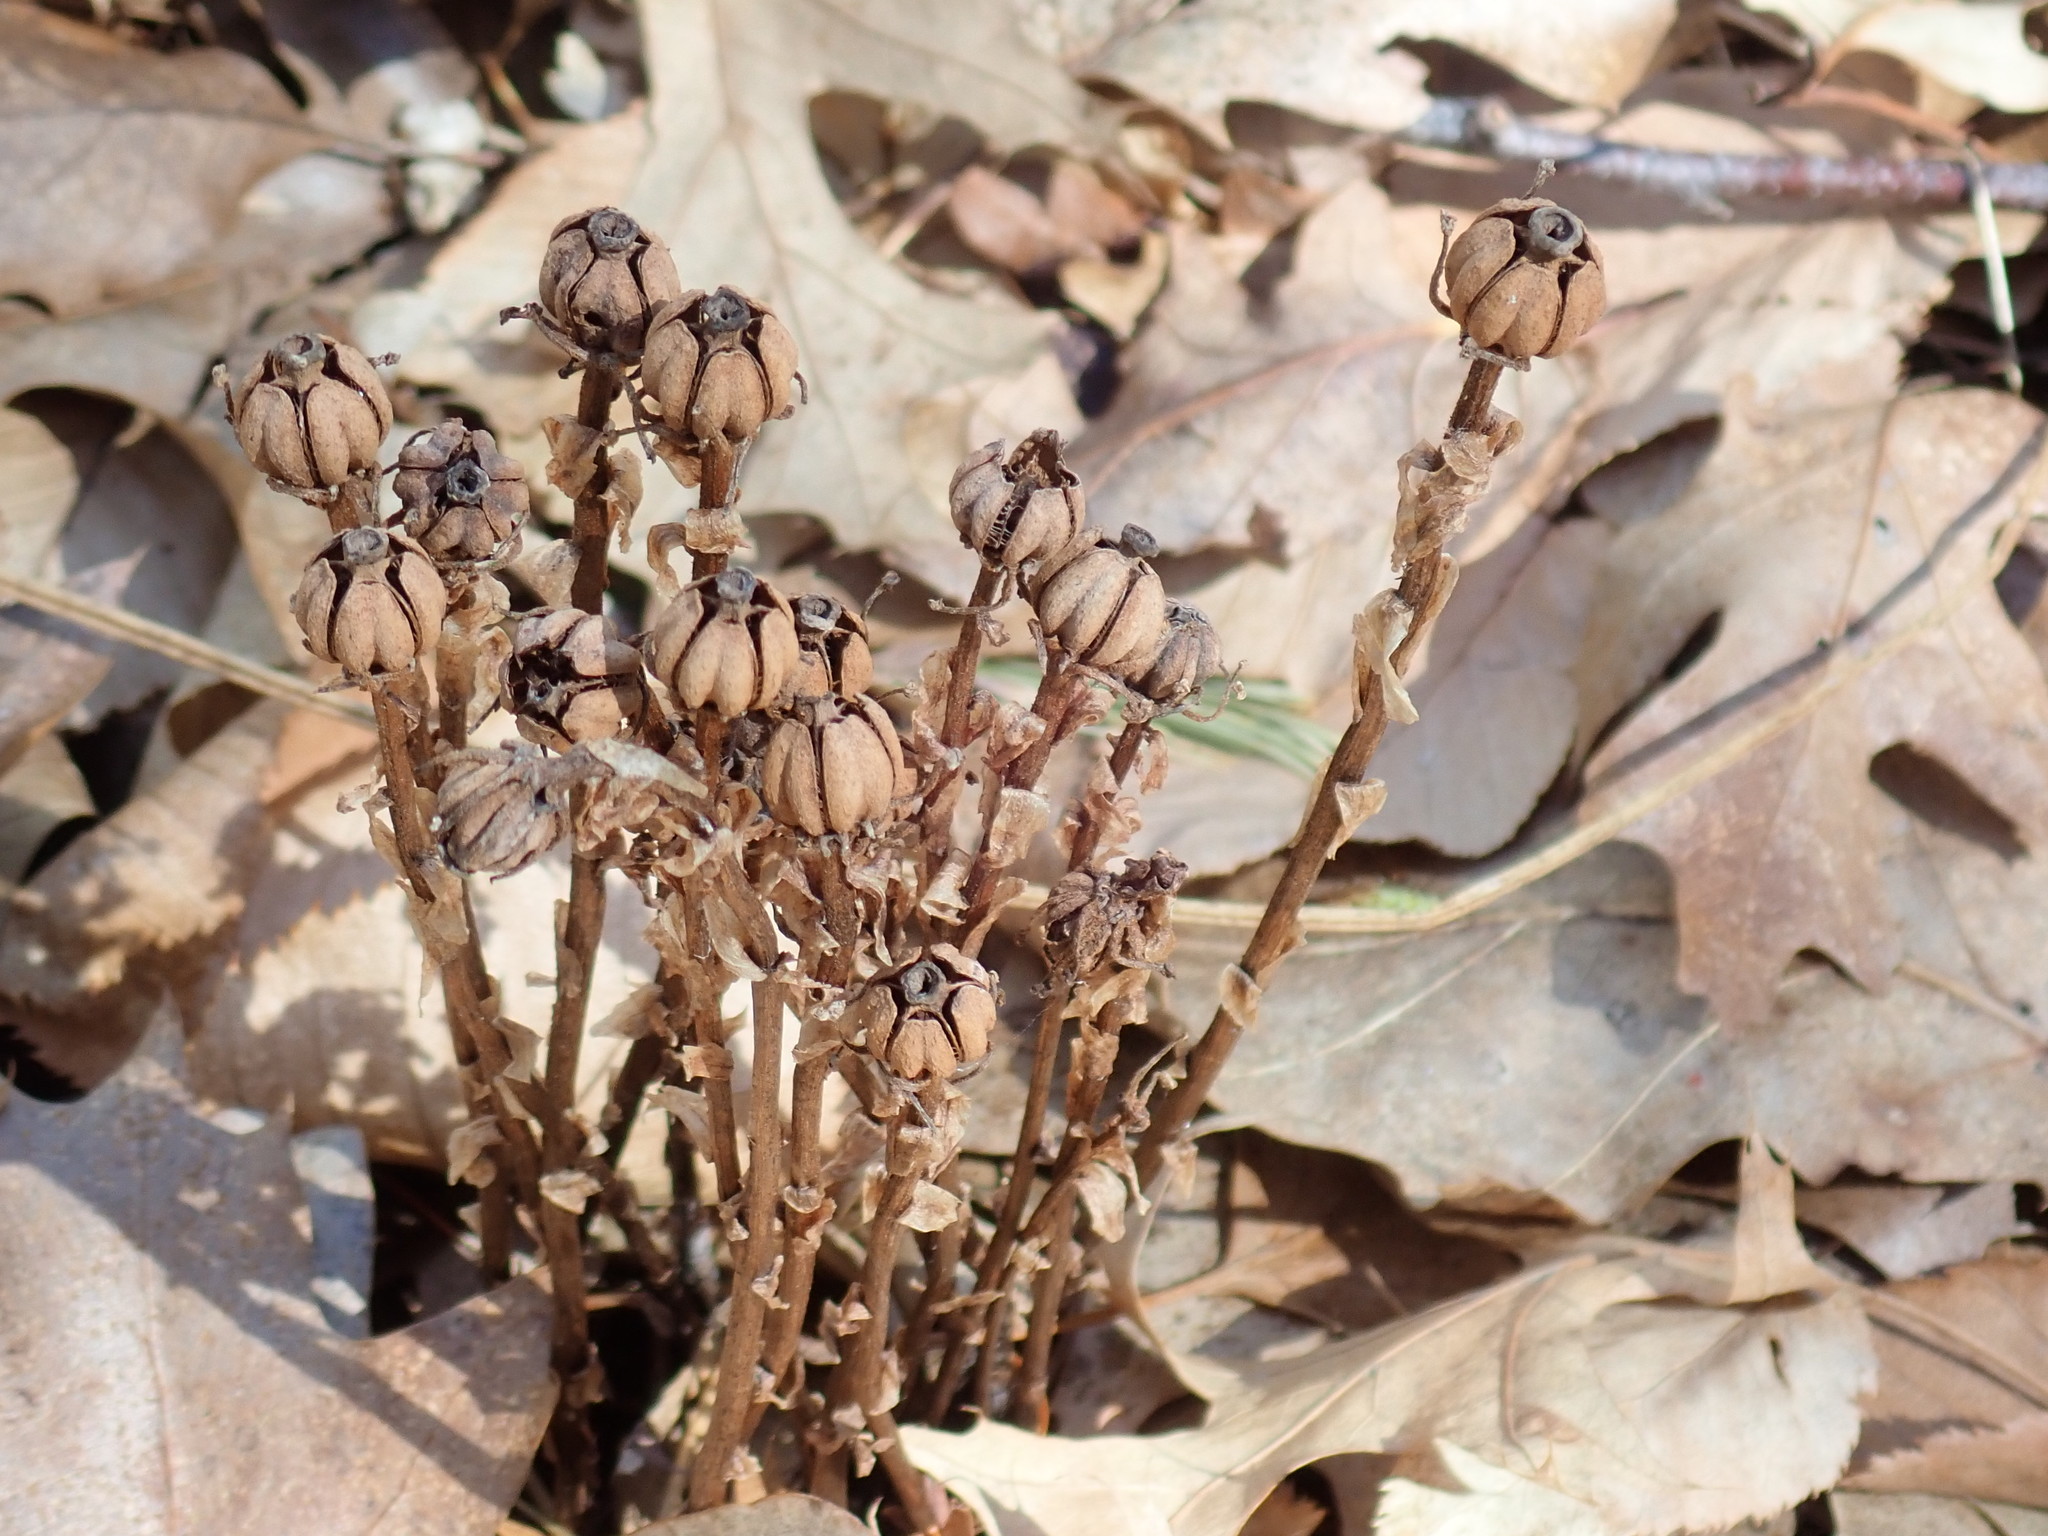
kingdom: Plantae
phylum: Tracheophyta
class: Magnoliopsida
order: Ericales
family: Ericaceae
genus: Monotropa
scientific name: Monotropa uniflora
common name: Convulsion root
